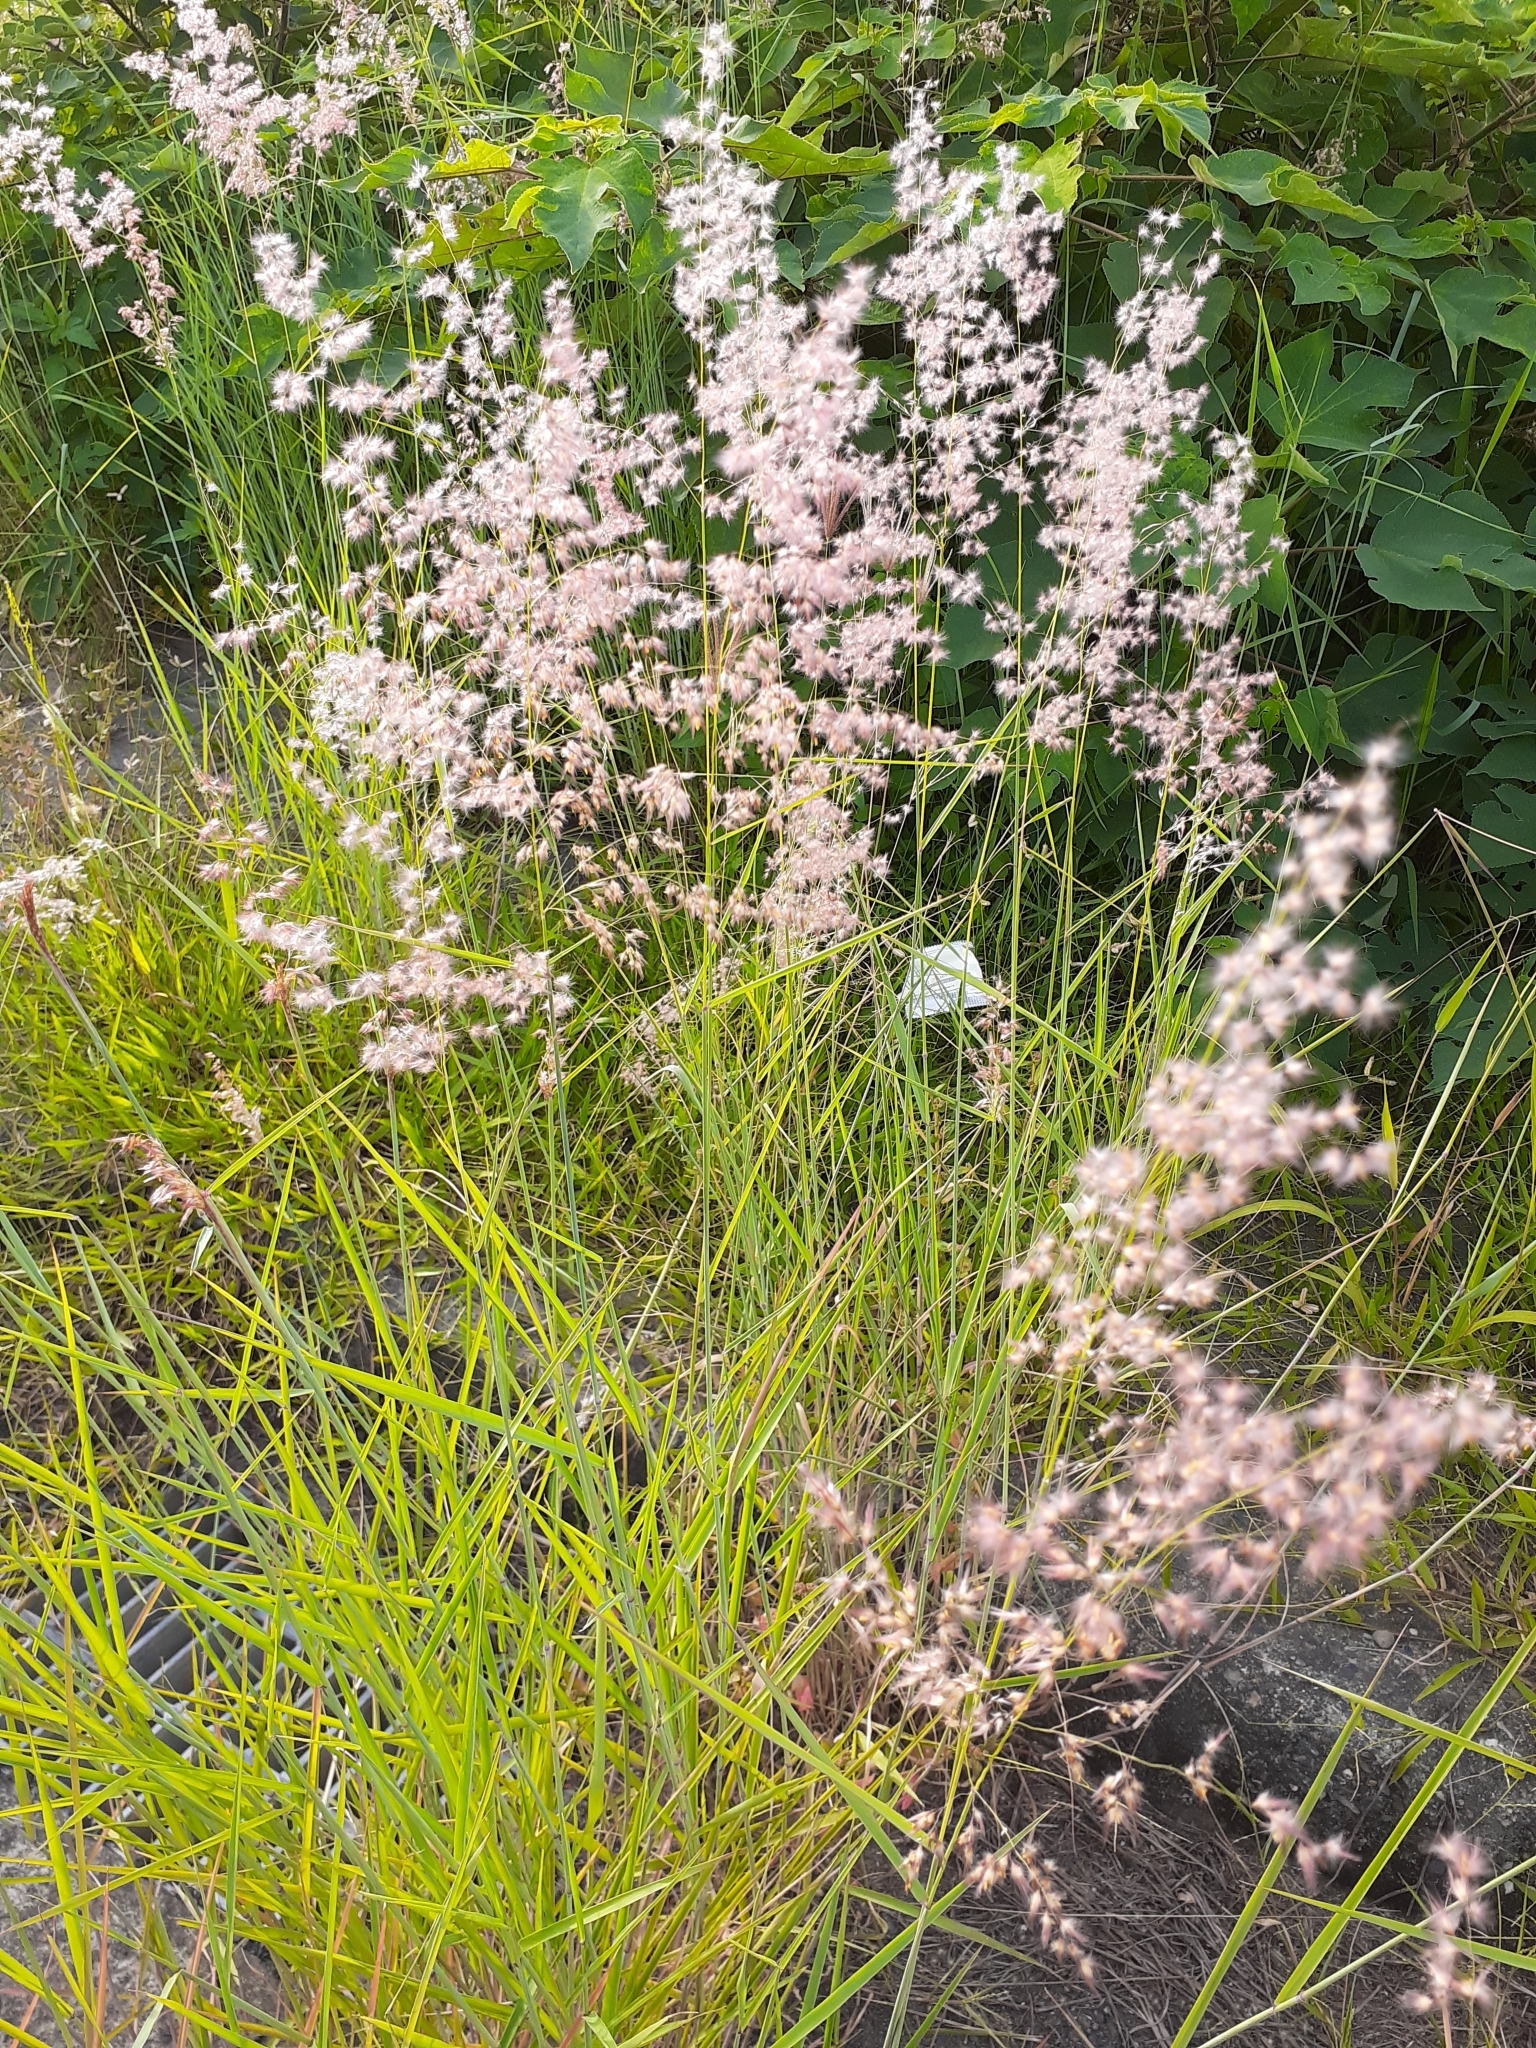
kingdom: Plantae
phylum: Tracheophyta
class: Liliopsida
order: Poales
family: Poaceae
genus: Melinis
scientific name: Melinis repens
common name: Rose natal grass
